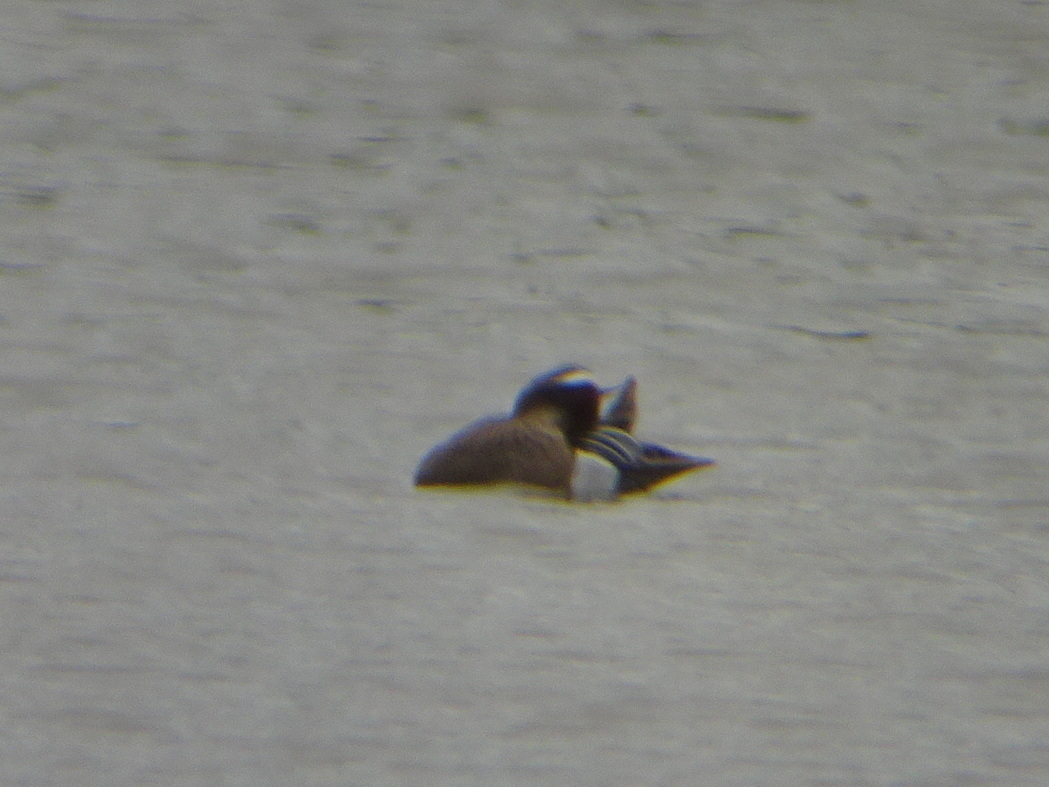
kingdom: Animalia
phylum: Chordata
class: Aves
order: Anseriformes
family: Anatidae
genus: Spatula
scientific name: Spatula querquedula
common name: Garganey
